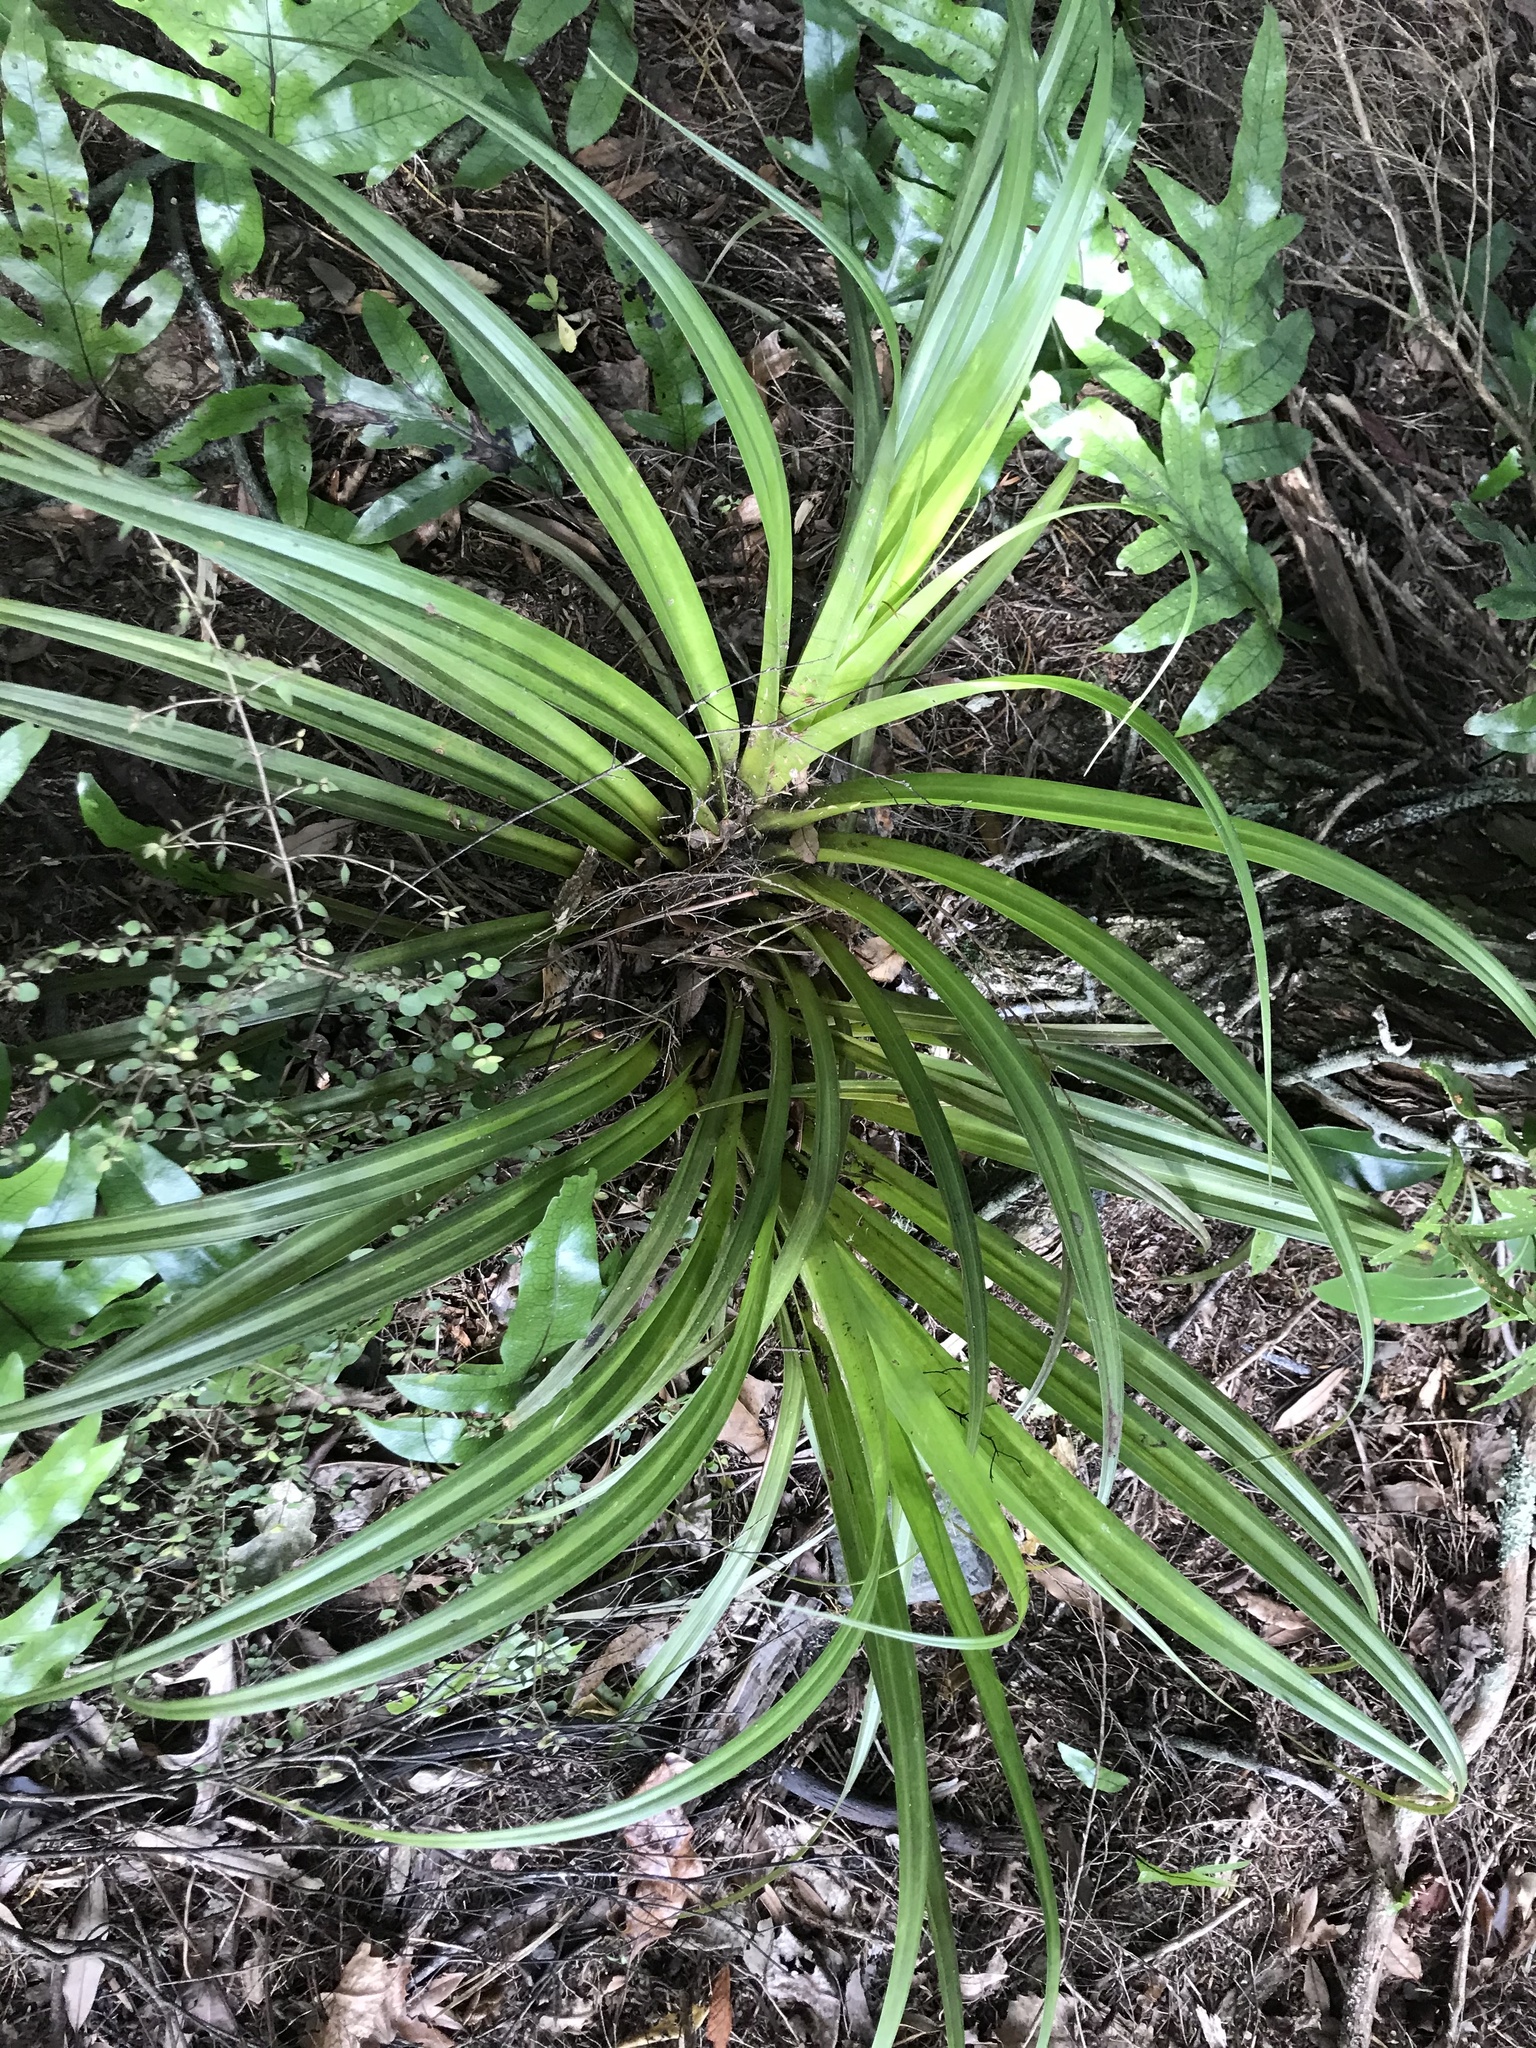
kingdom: Plantae
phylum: Tracheophyta
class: Liliopsida
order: Asparagales
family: Asteliaceae
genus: Astelia
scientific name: Astelia hastata
